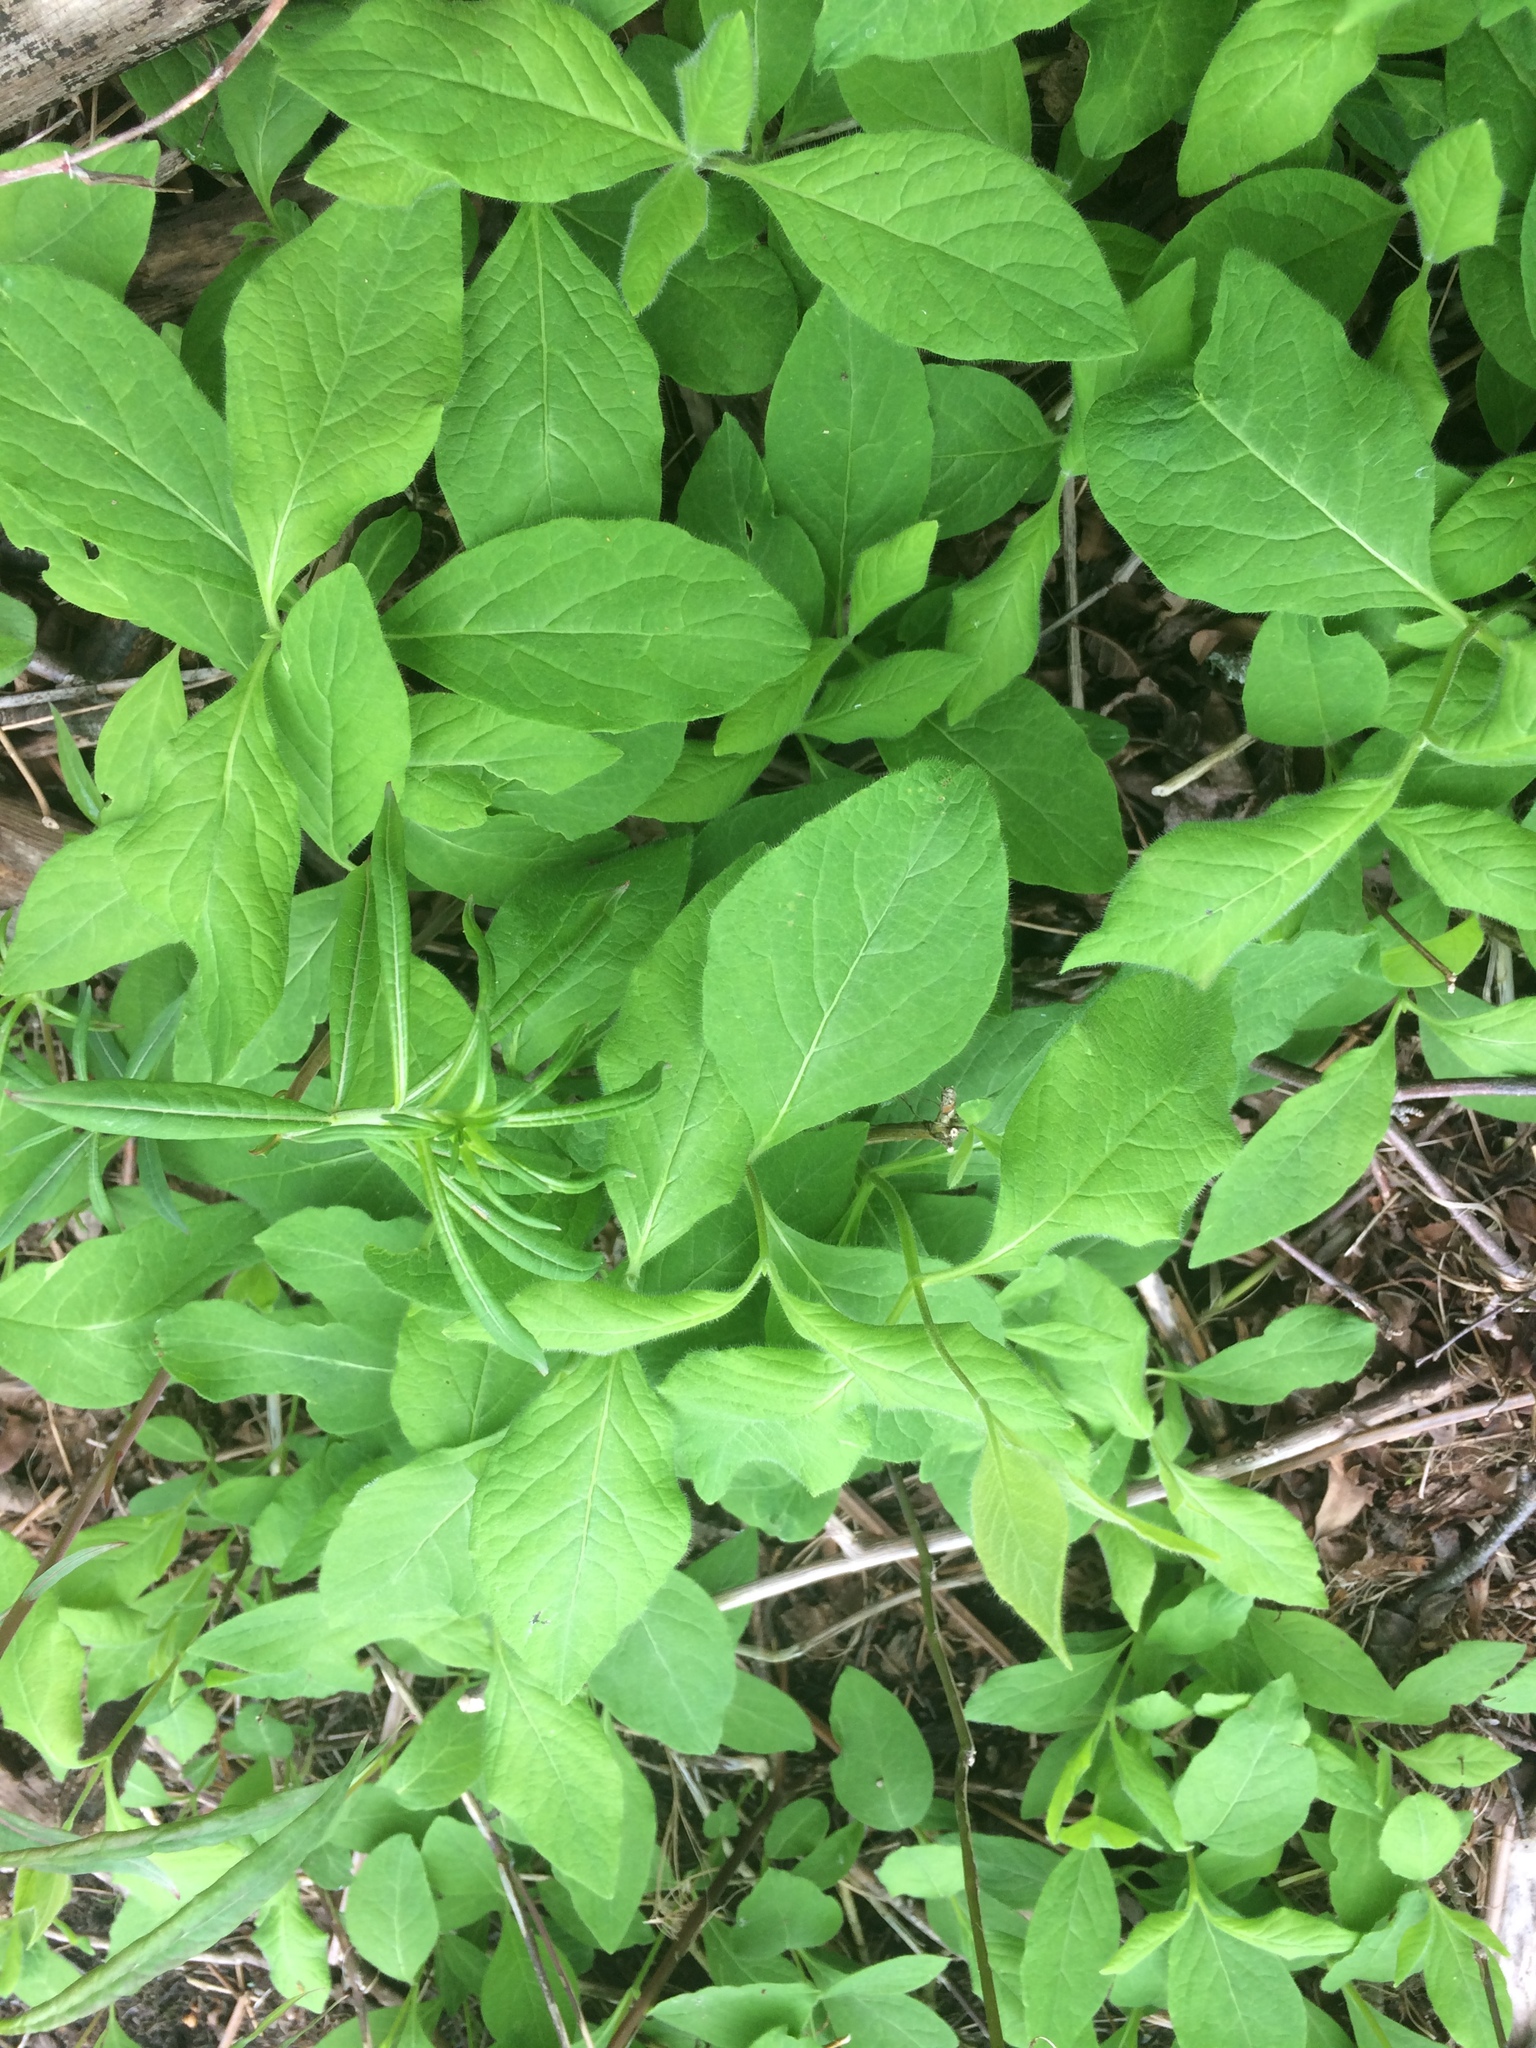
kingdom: Plantae
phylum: Tracheophyta
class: Magnoliopsida
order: Dipsacales
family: Caprifoliaceae
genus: Lonicera
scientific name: Lonicera hirsuta
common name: Hairy honeysuckle
